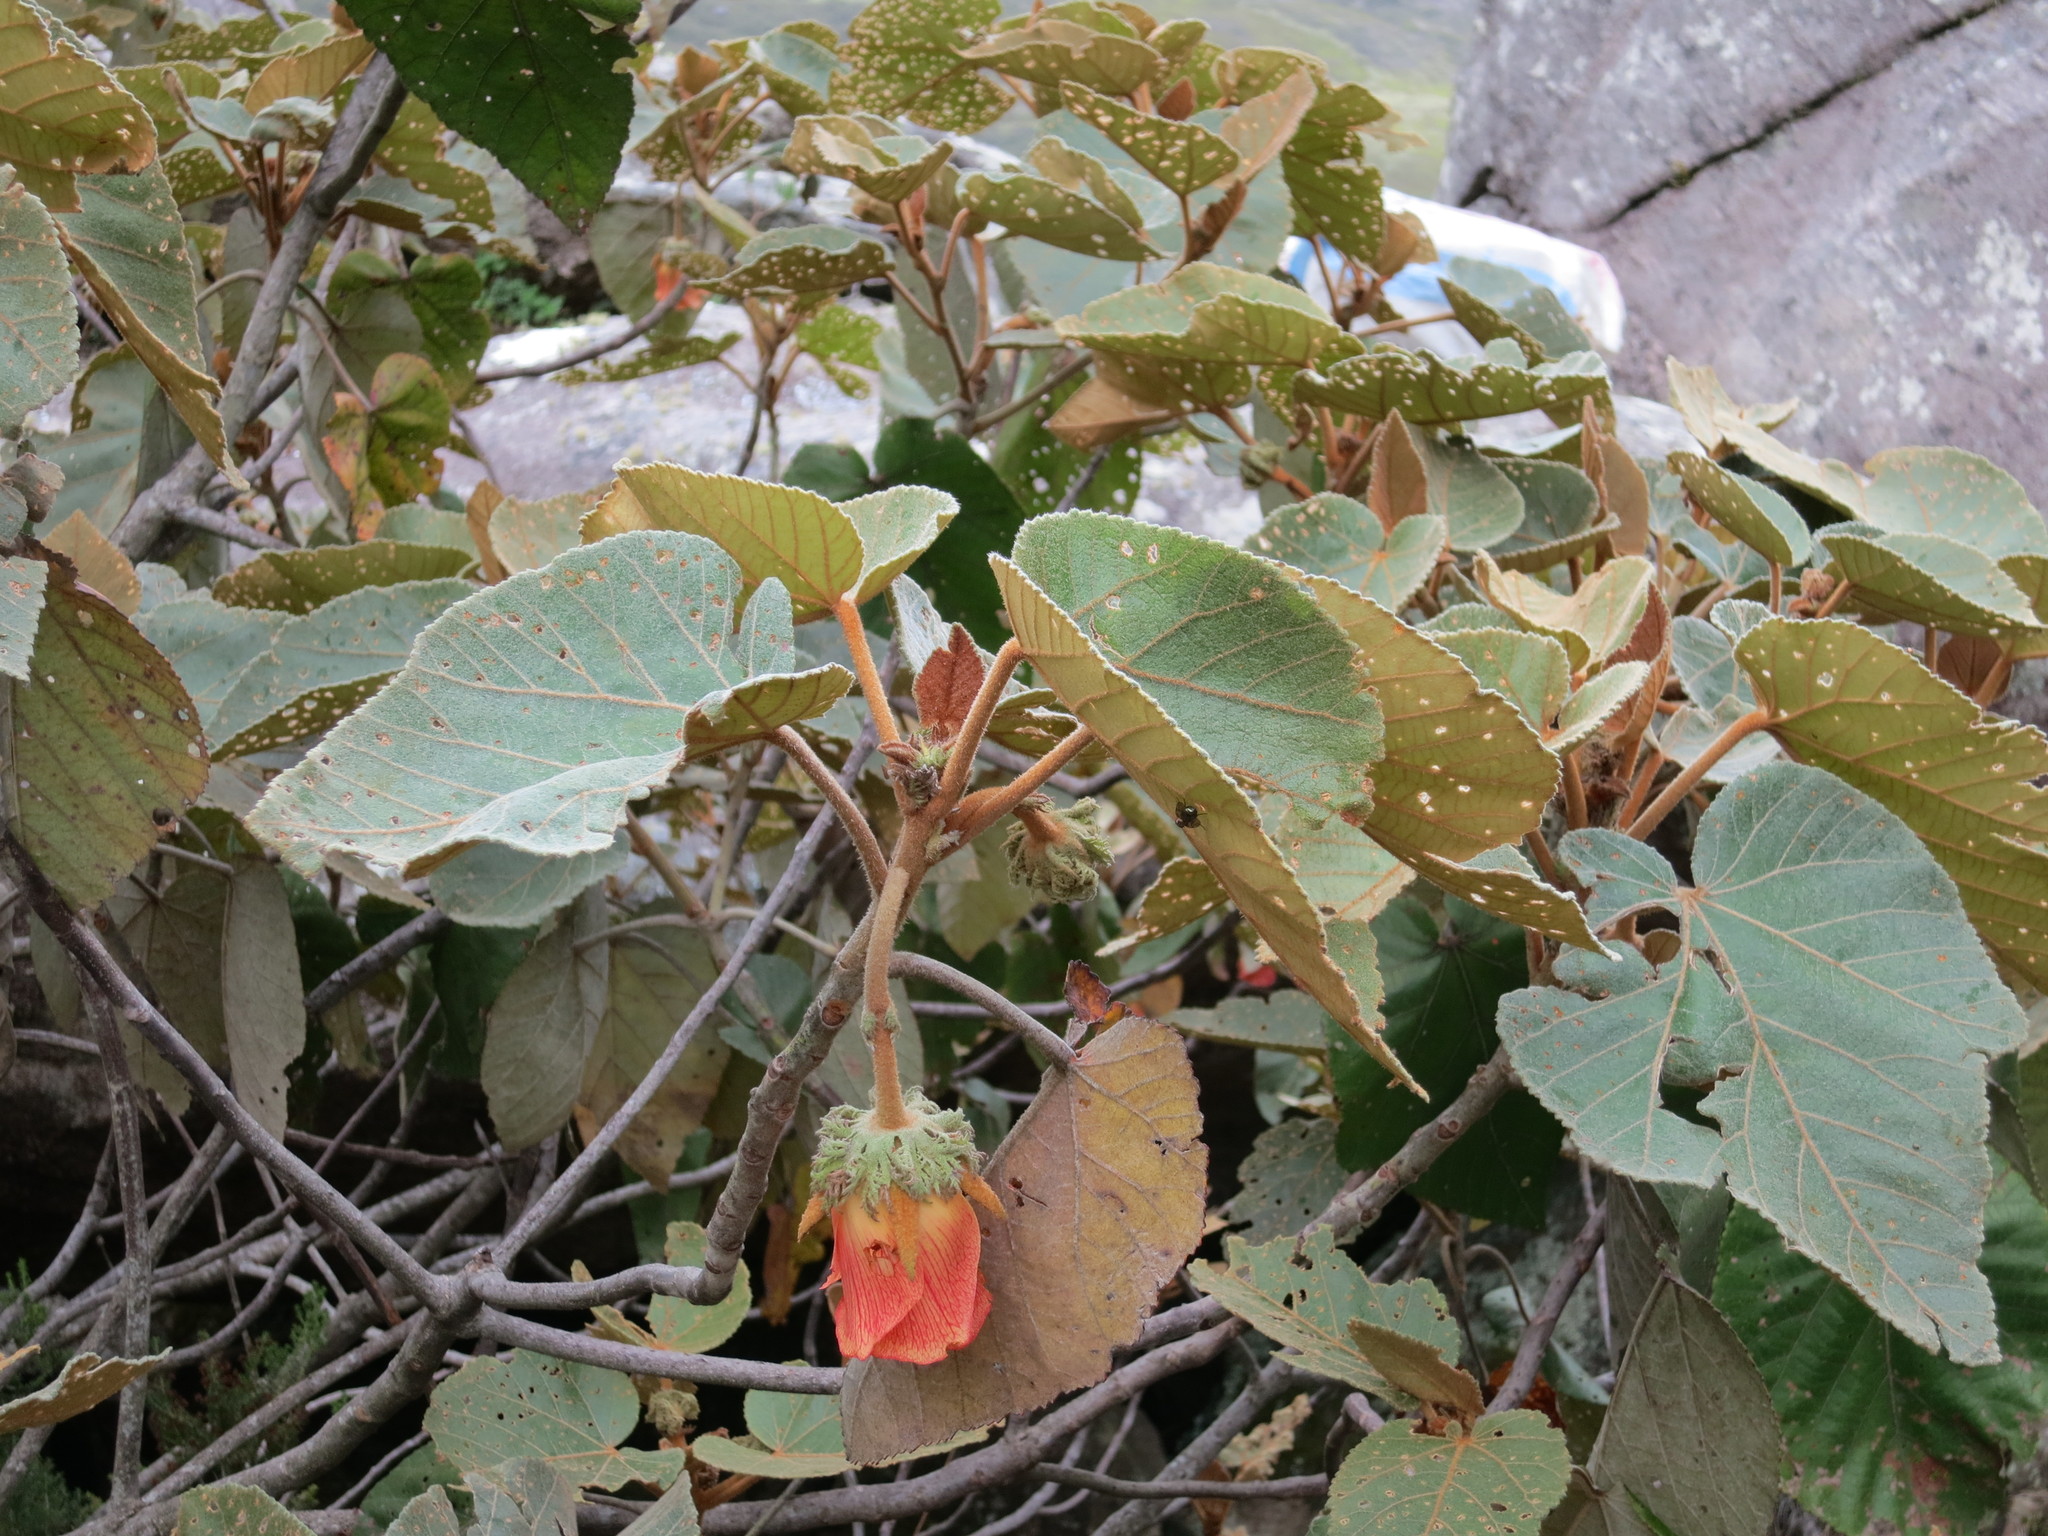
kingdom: Plantae
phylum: Tracheophyta
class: Magnoliopsida
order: Malvales
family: Malvaceae
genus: Andringitra
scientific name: Andringitra macrantha
